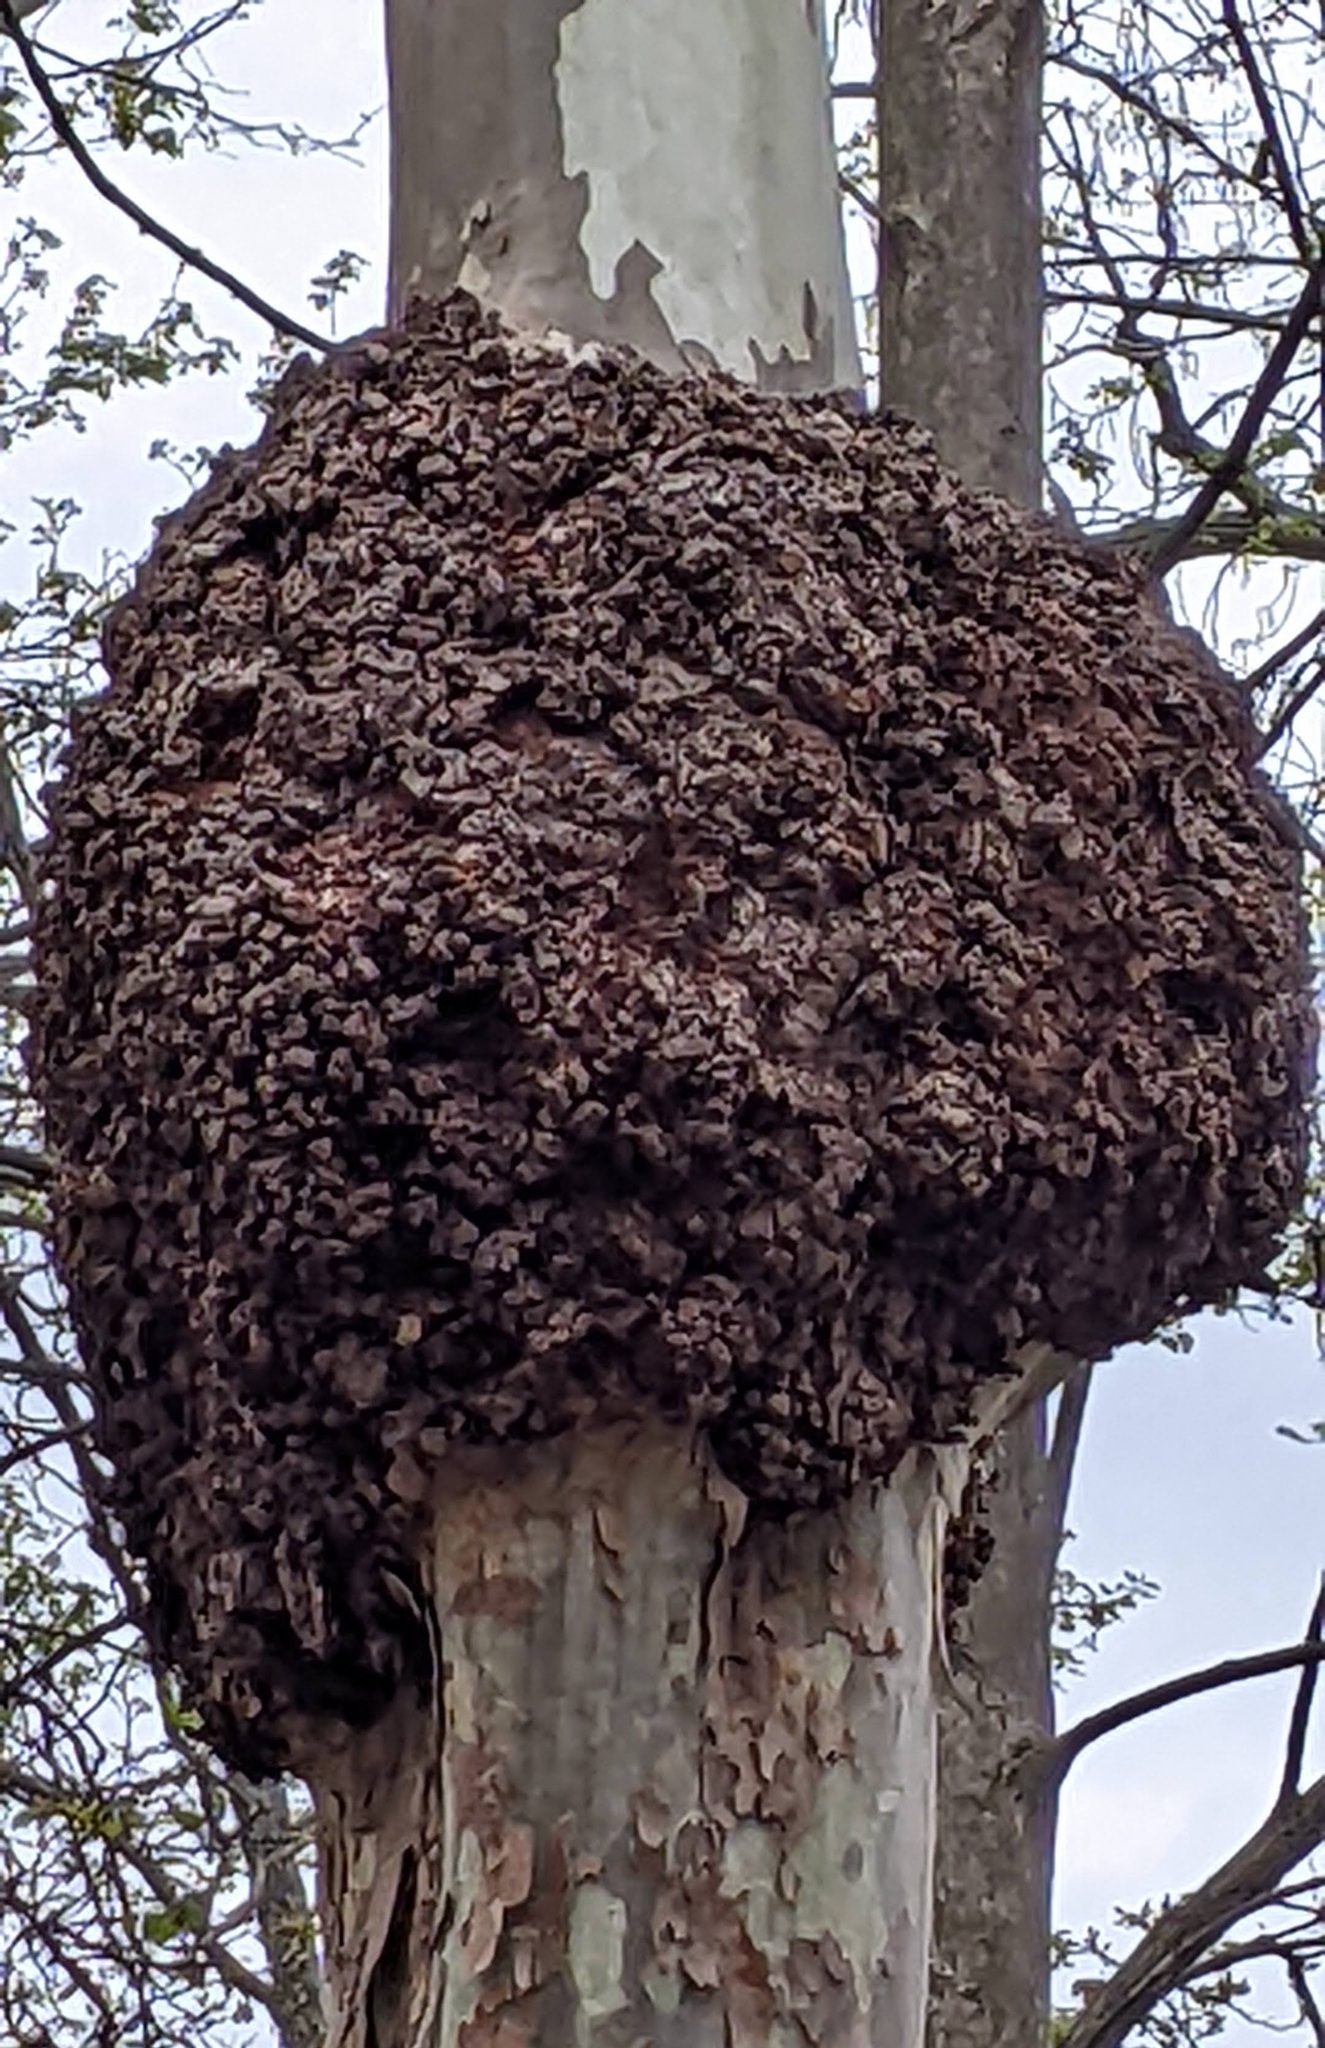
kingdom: Bacteria
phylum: Proteobacteria
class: Alphaproteobacteria
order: Rhizobiales
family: Rhizobiaceae
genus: Rhizobium
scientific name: Rhizobium Agrobacterium radiobacter
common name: Bacterial crown gall
